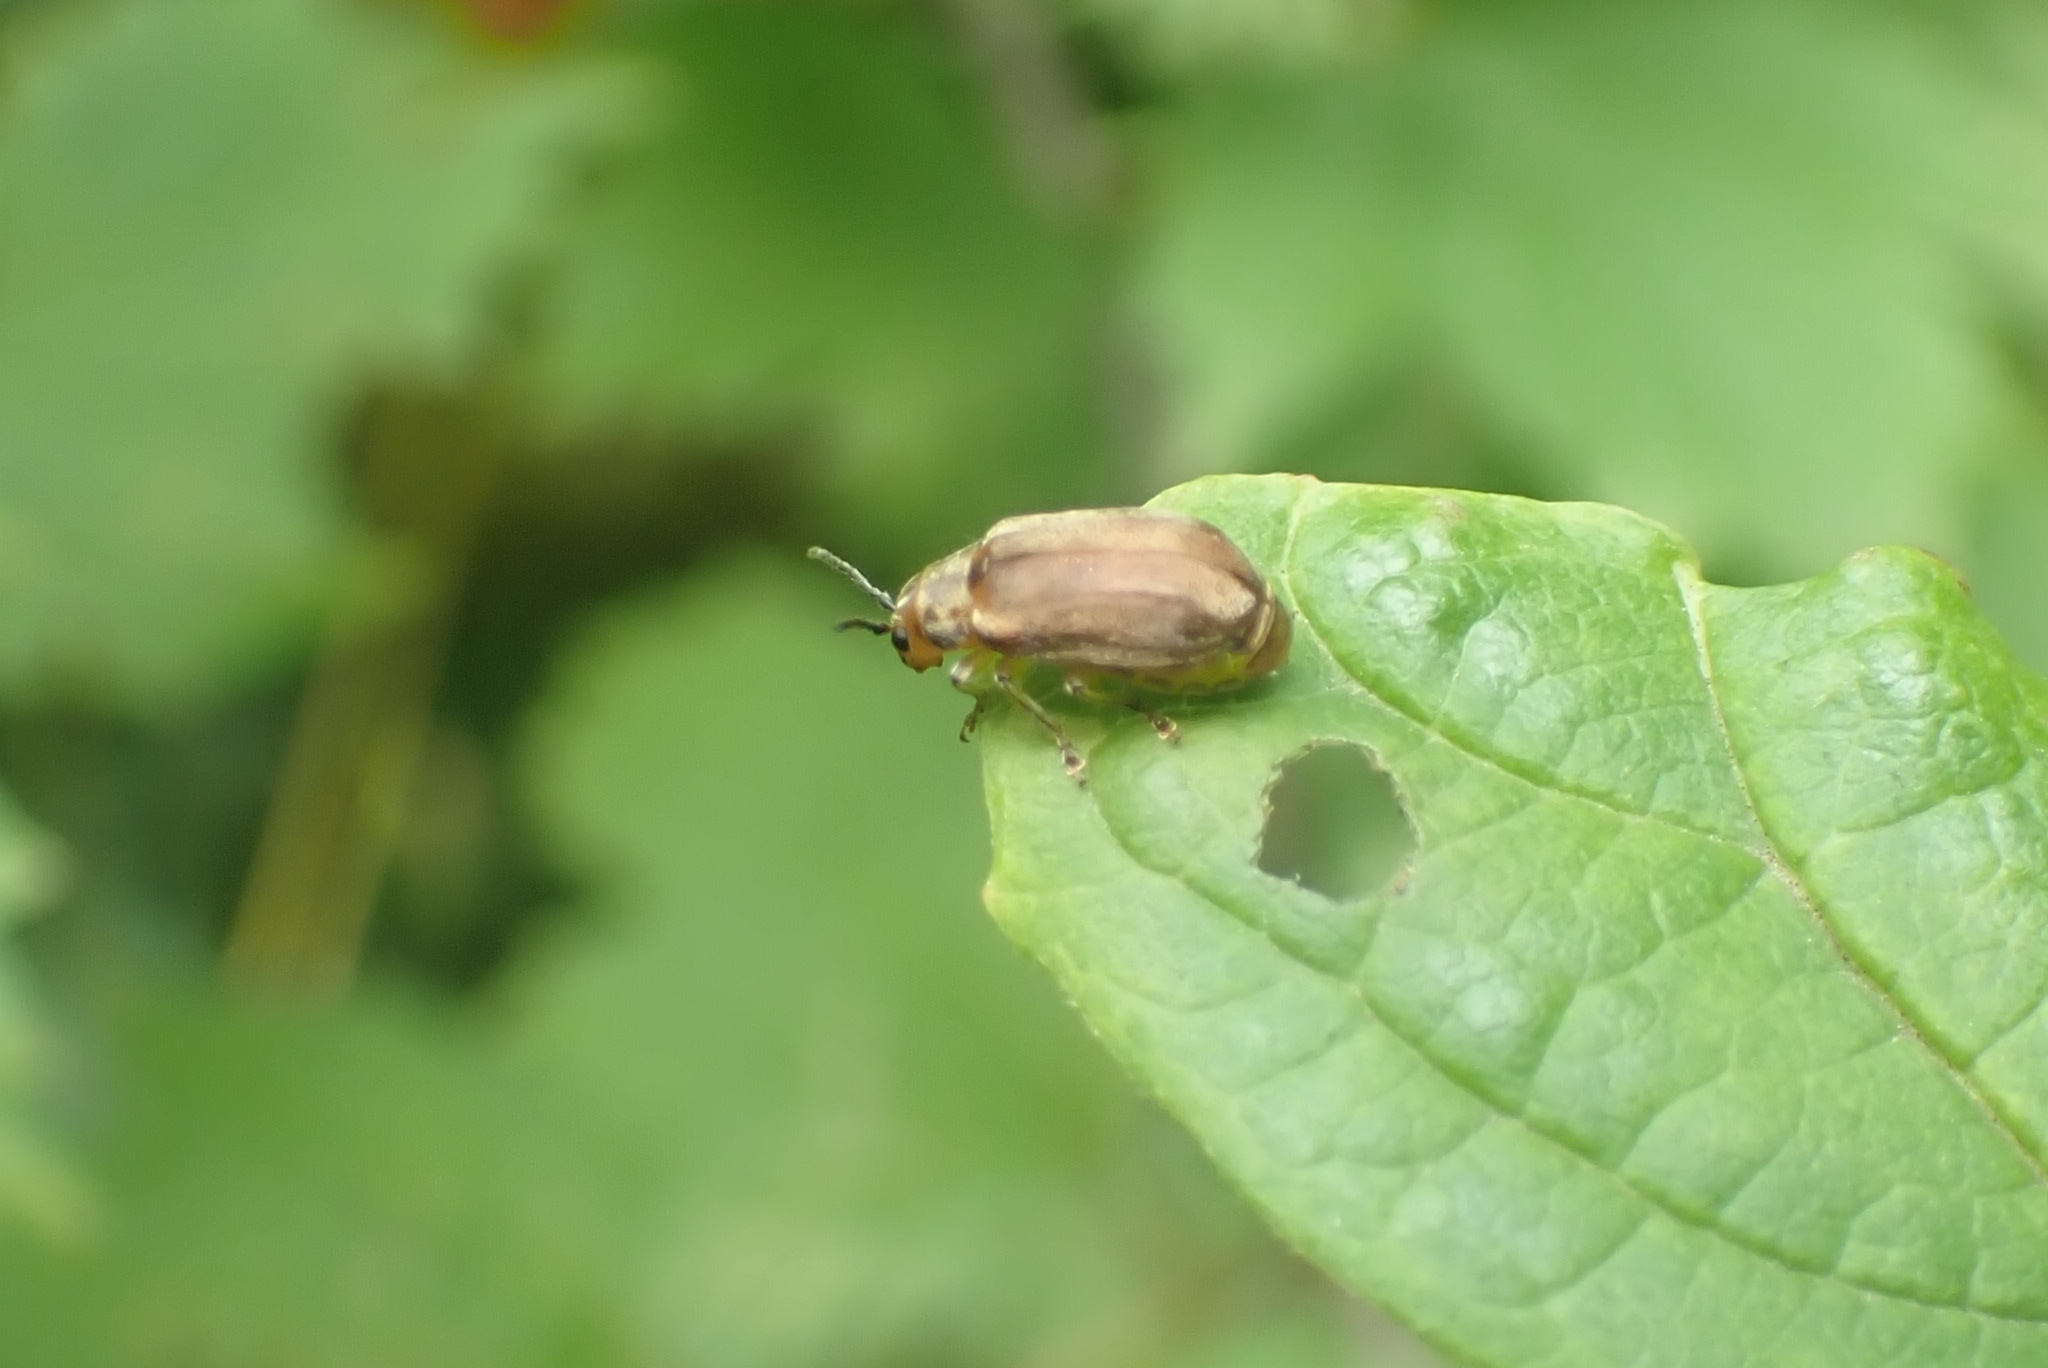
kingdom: Animalia
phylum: Arthropoda
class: Insecta
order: Coleoptera
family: Chrysomelidae
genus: Pyrrhalta
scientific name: Pyrrhalta viburni
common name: Guelder-rose leaf beetle
